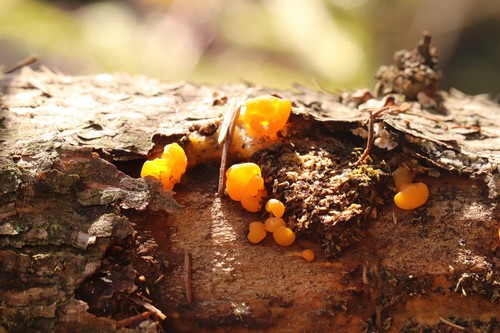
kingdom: Fungi
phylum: Basidiomycota
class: Dacrymycetes
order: Dacrymycetales
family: Dacrymycetaceae
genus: Dacrymyces
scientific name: Dacrymyces chrysospermus
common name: Orange jelly spot
